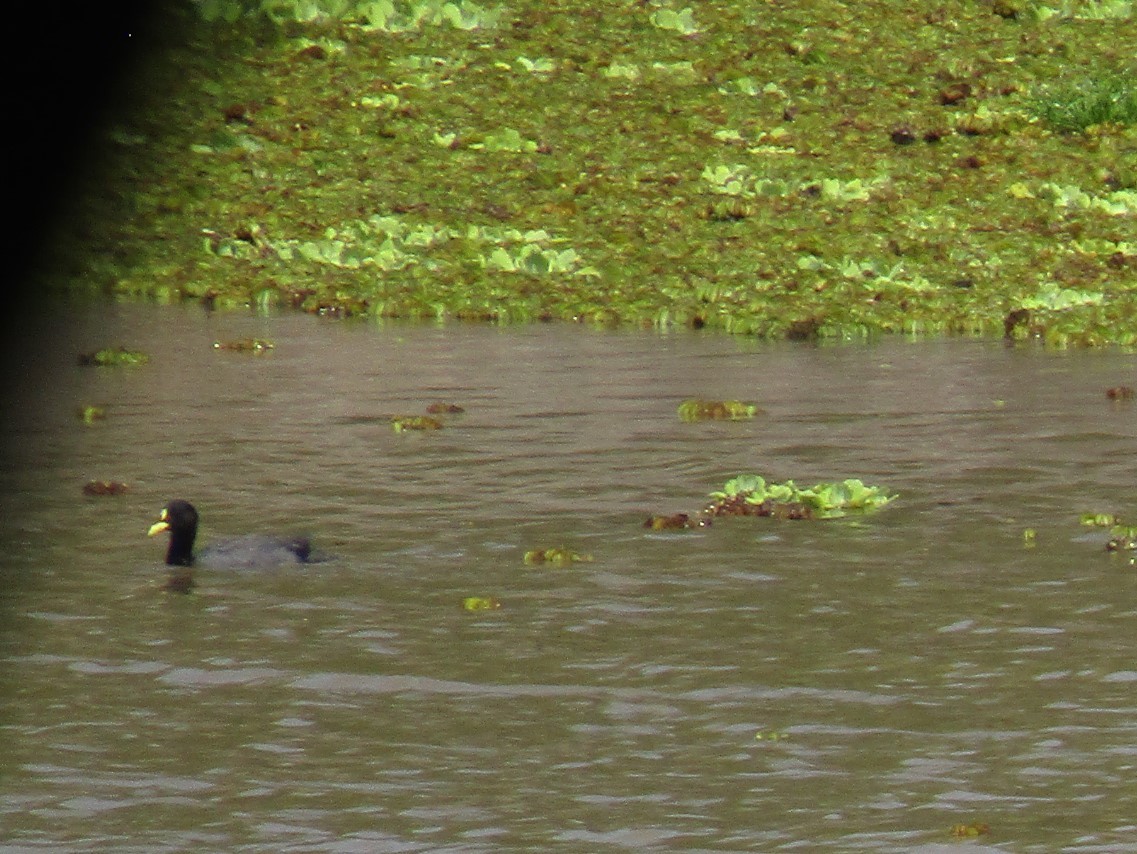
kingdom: Animalia
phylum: Chordata
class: Aves
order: Gruiformes
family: Rallidae
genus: Fulica
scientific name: Fulica armillata
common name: Red-gartered coot
